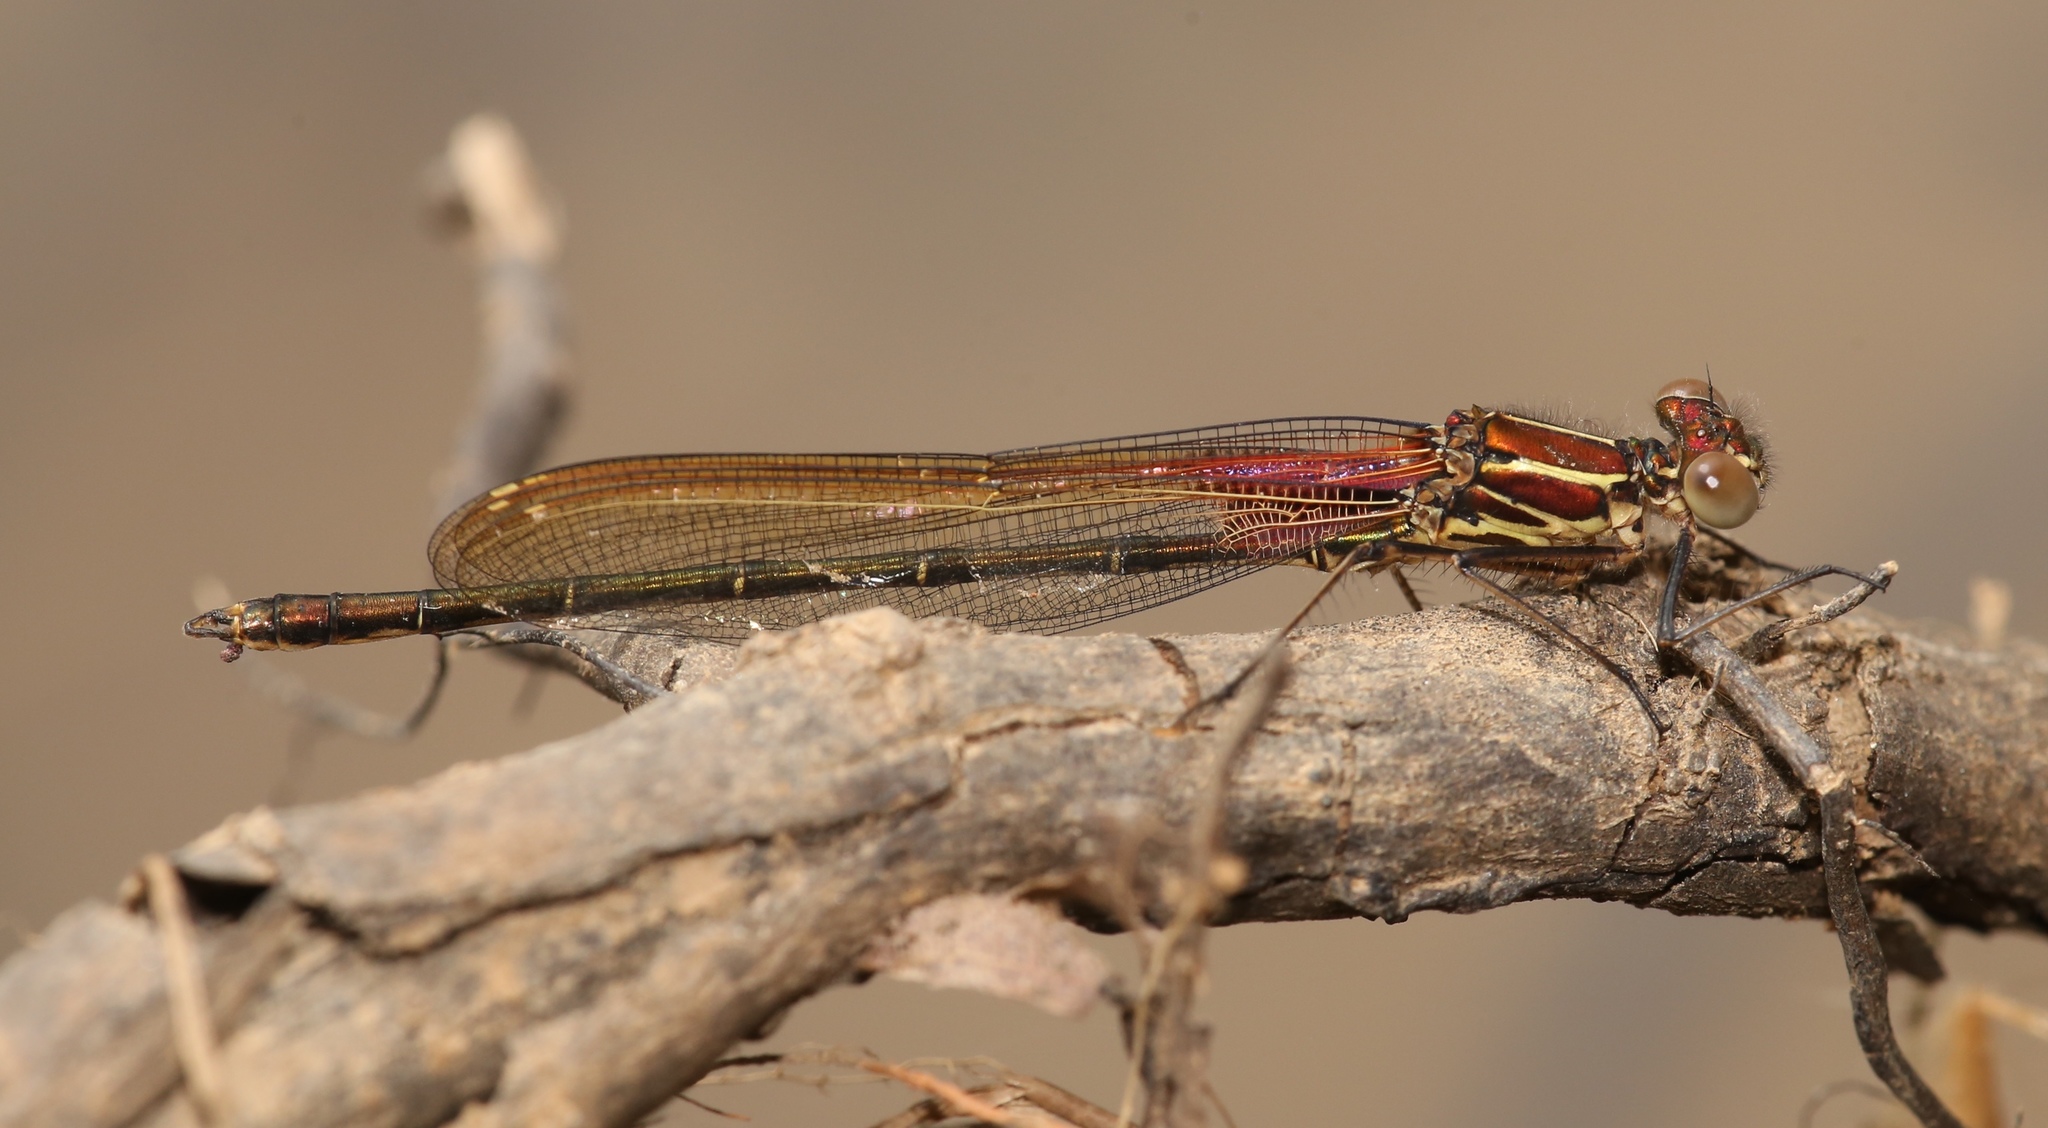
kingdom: Animalia
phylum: Arthropoda
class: Insecta
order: Odonata
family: Calopterygidae
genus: Hetaerina
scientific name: Hetaerina americana
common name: American rubyspot
